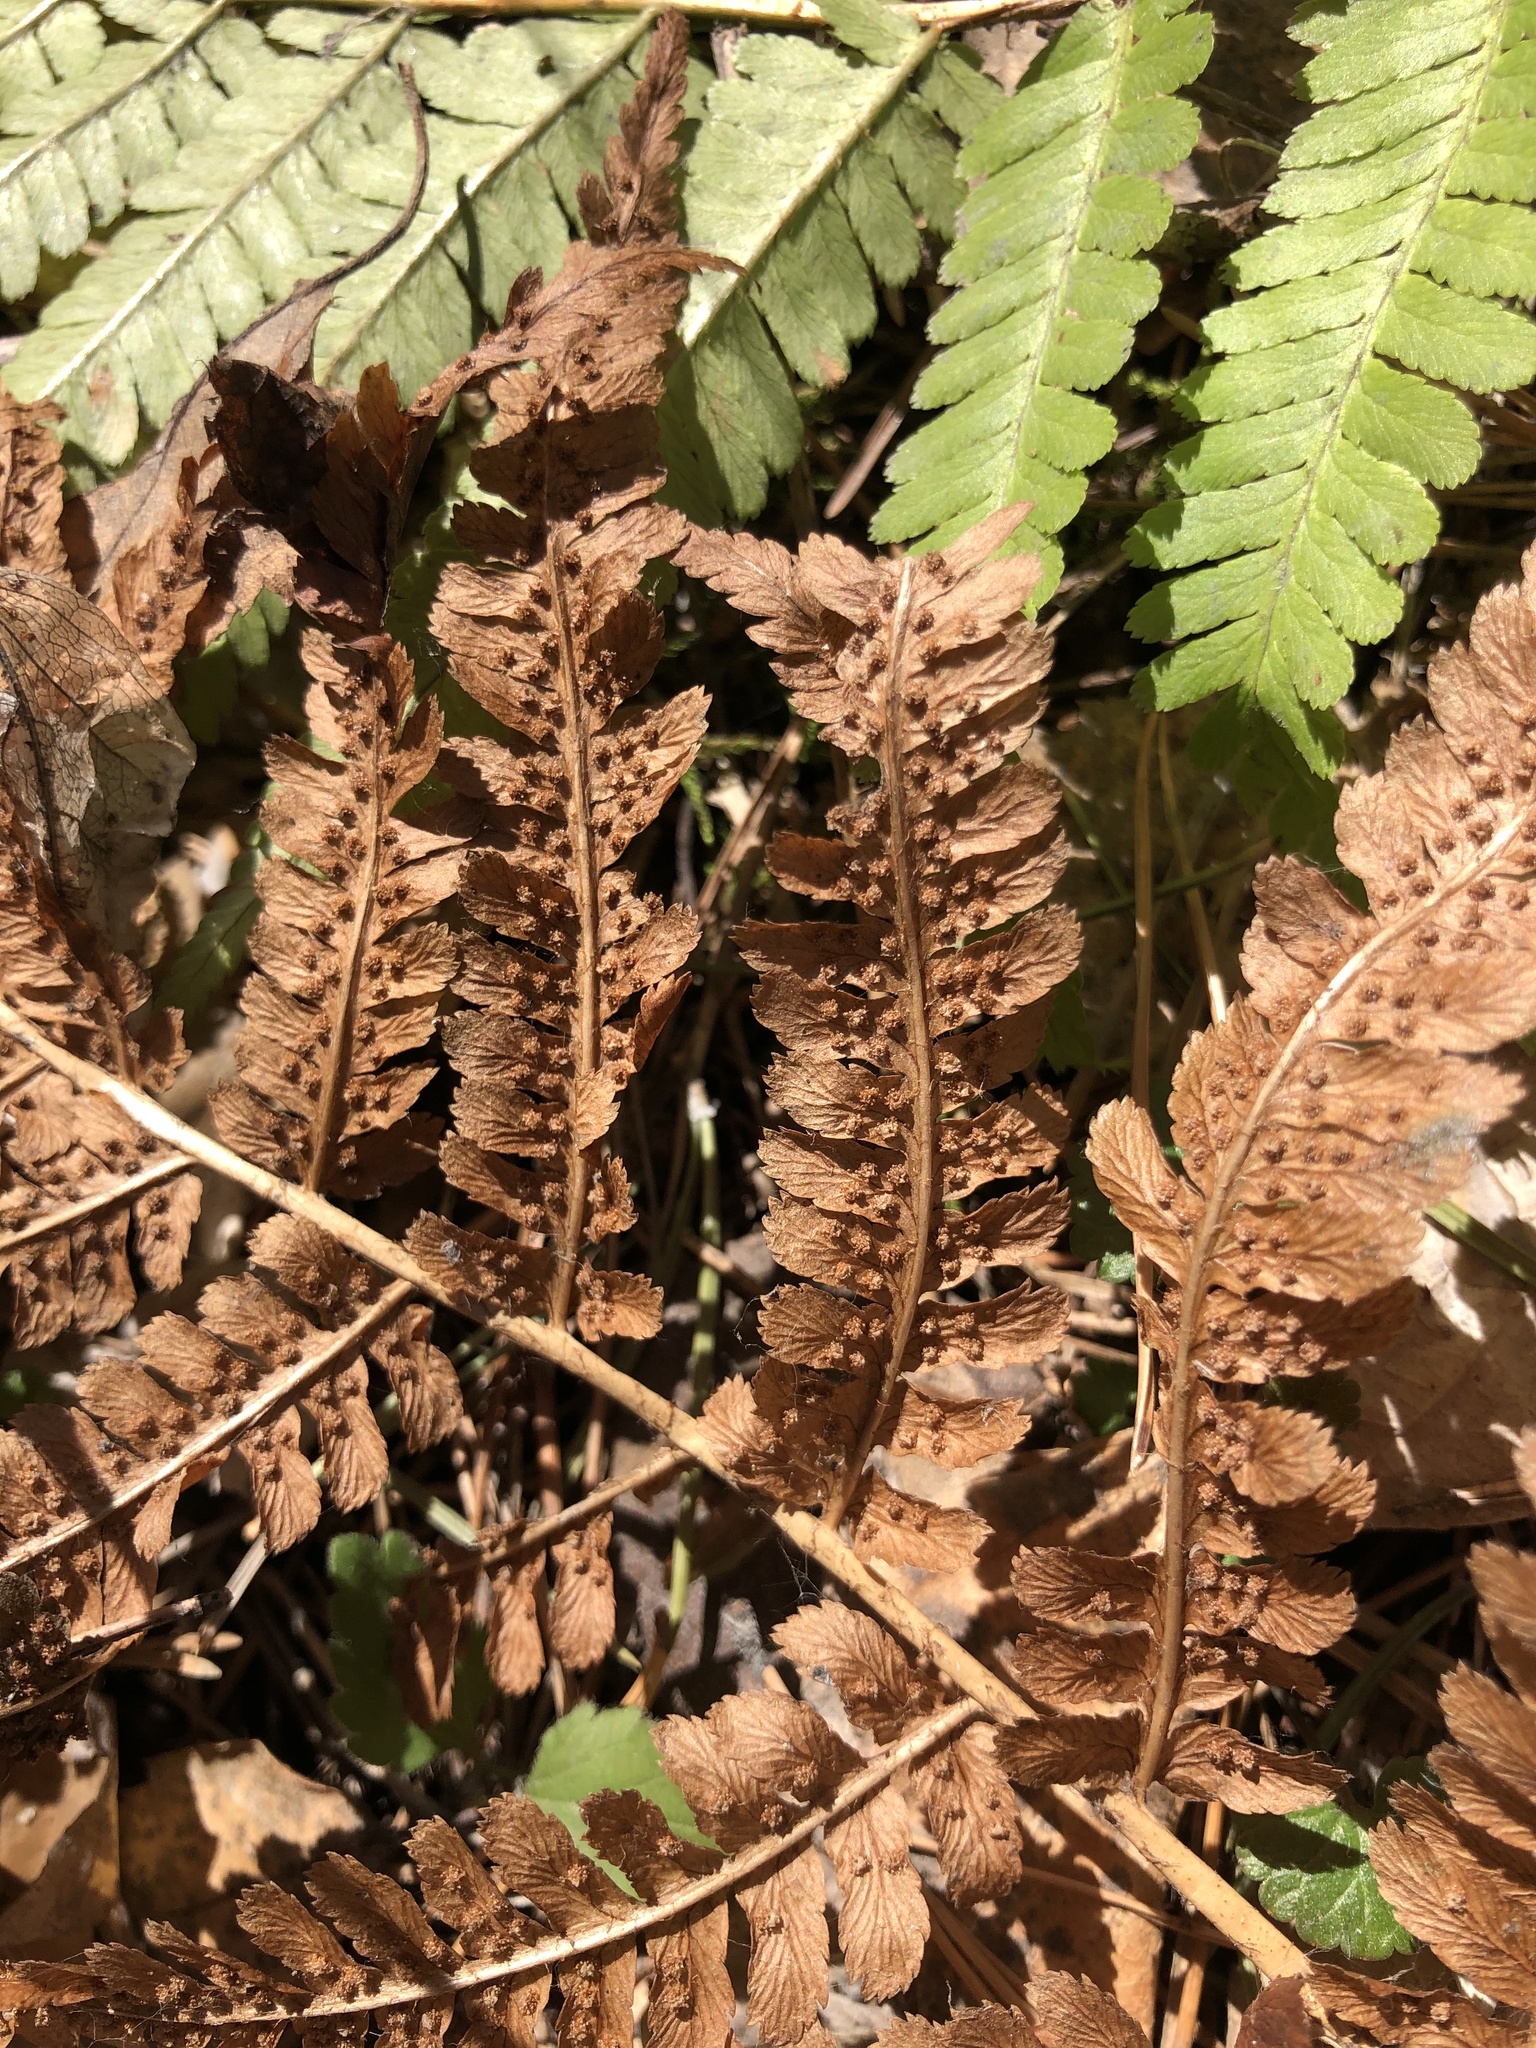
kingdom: Plantae
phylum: Tracheophyta
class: Polypodiopsida
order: Polypodiales
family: Dryopteridaceae
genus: Dryopteris
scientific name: Dryopteris filix-mas
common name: Male fern
